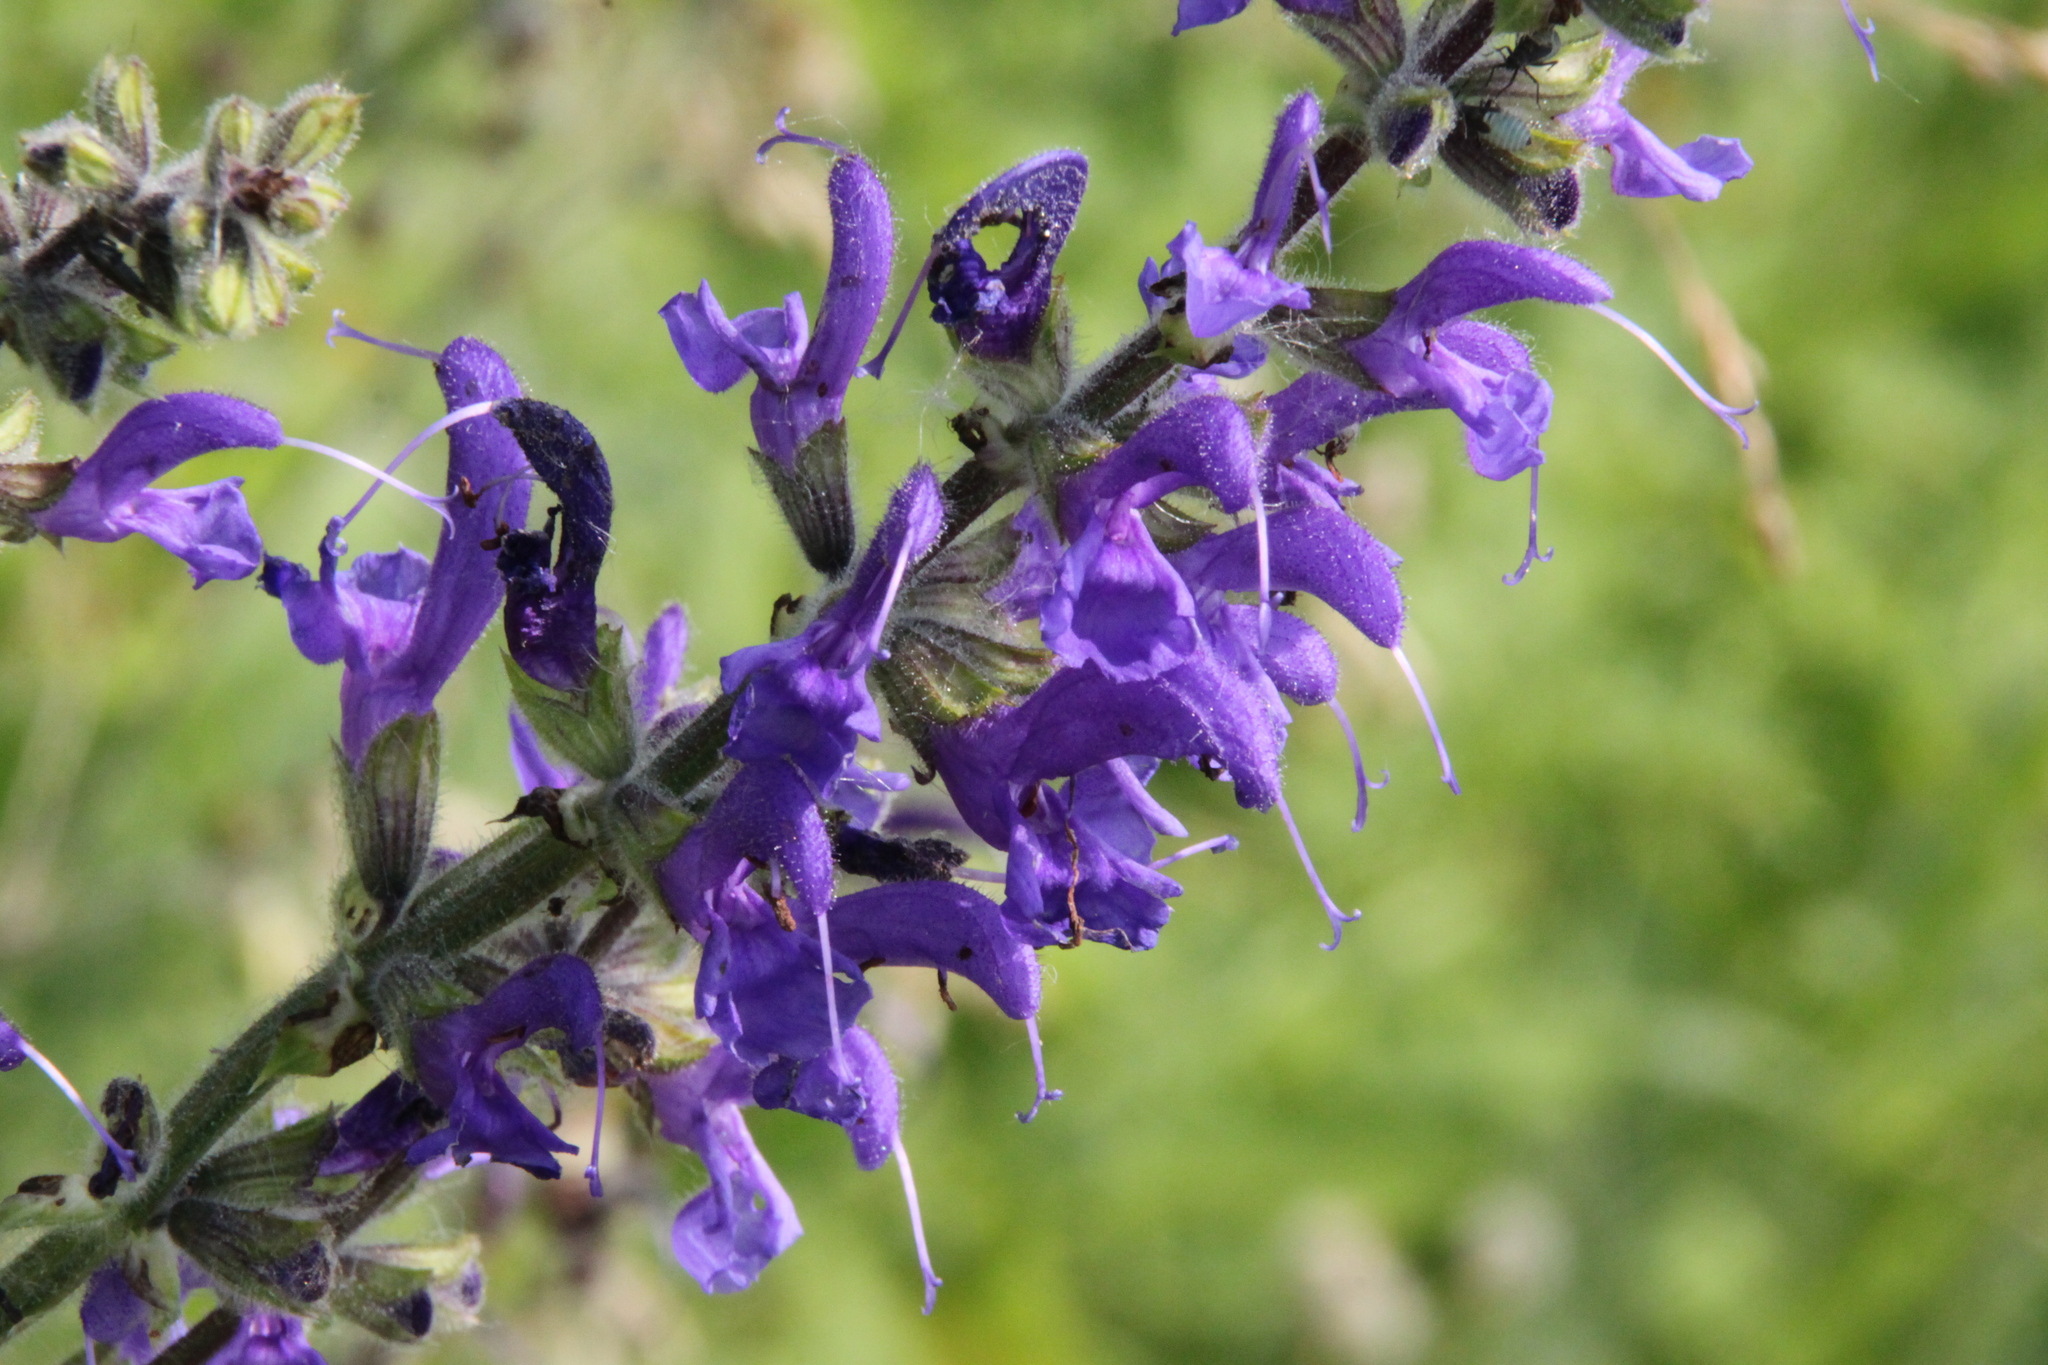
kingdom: Plantae
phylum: Tracheophyta
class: Magnoliopsida
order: Lamiales
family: Lamiaceae
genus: Salvia
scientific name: Salvia pratensis
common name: Meadow sage
